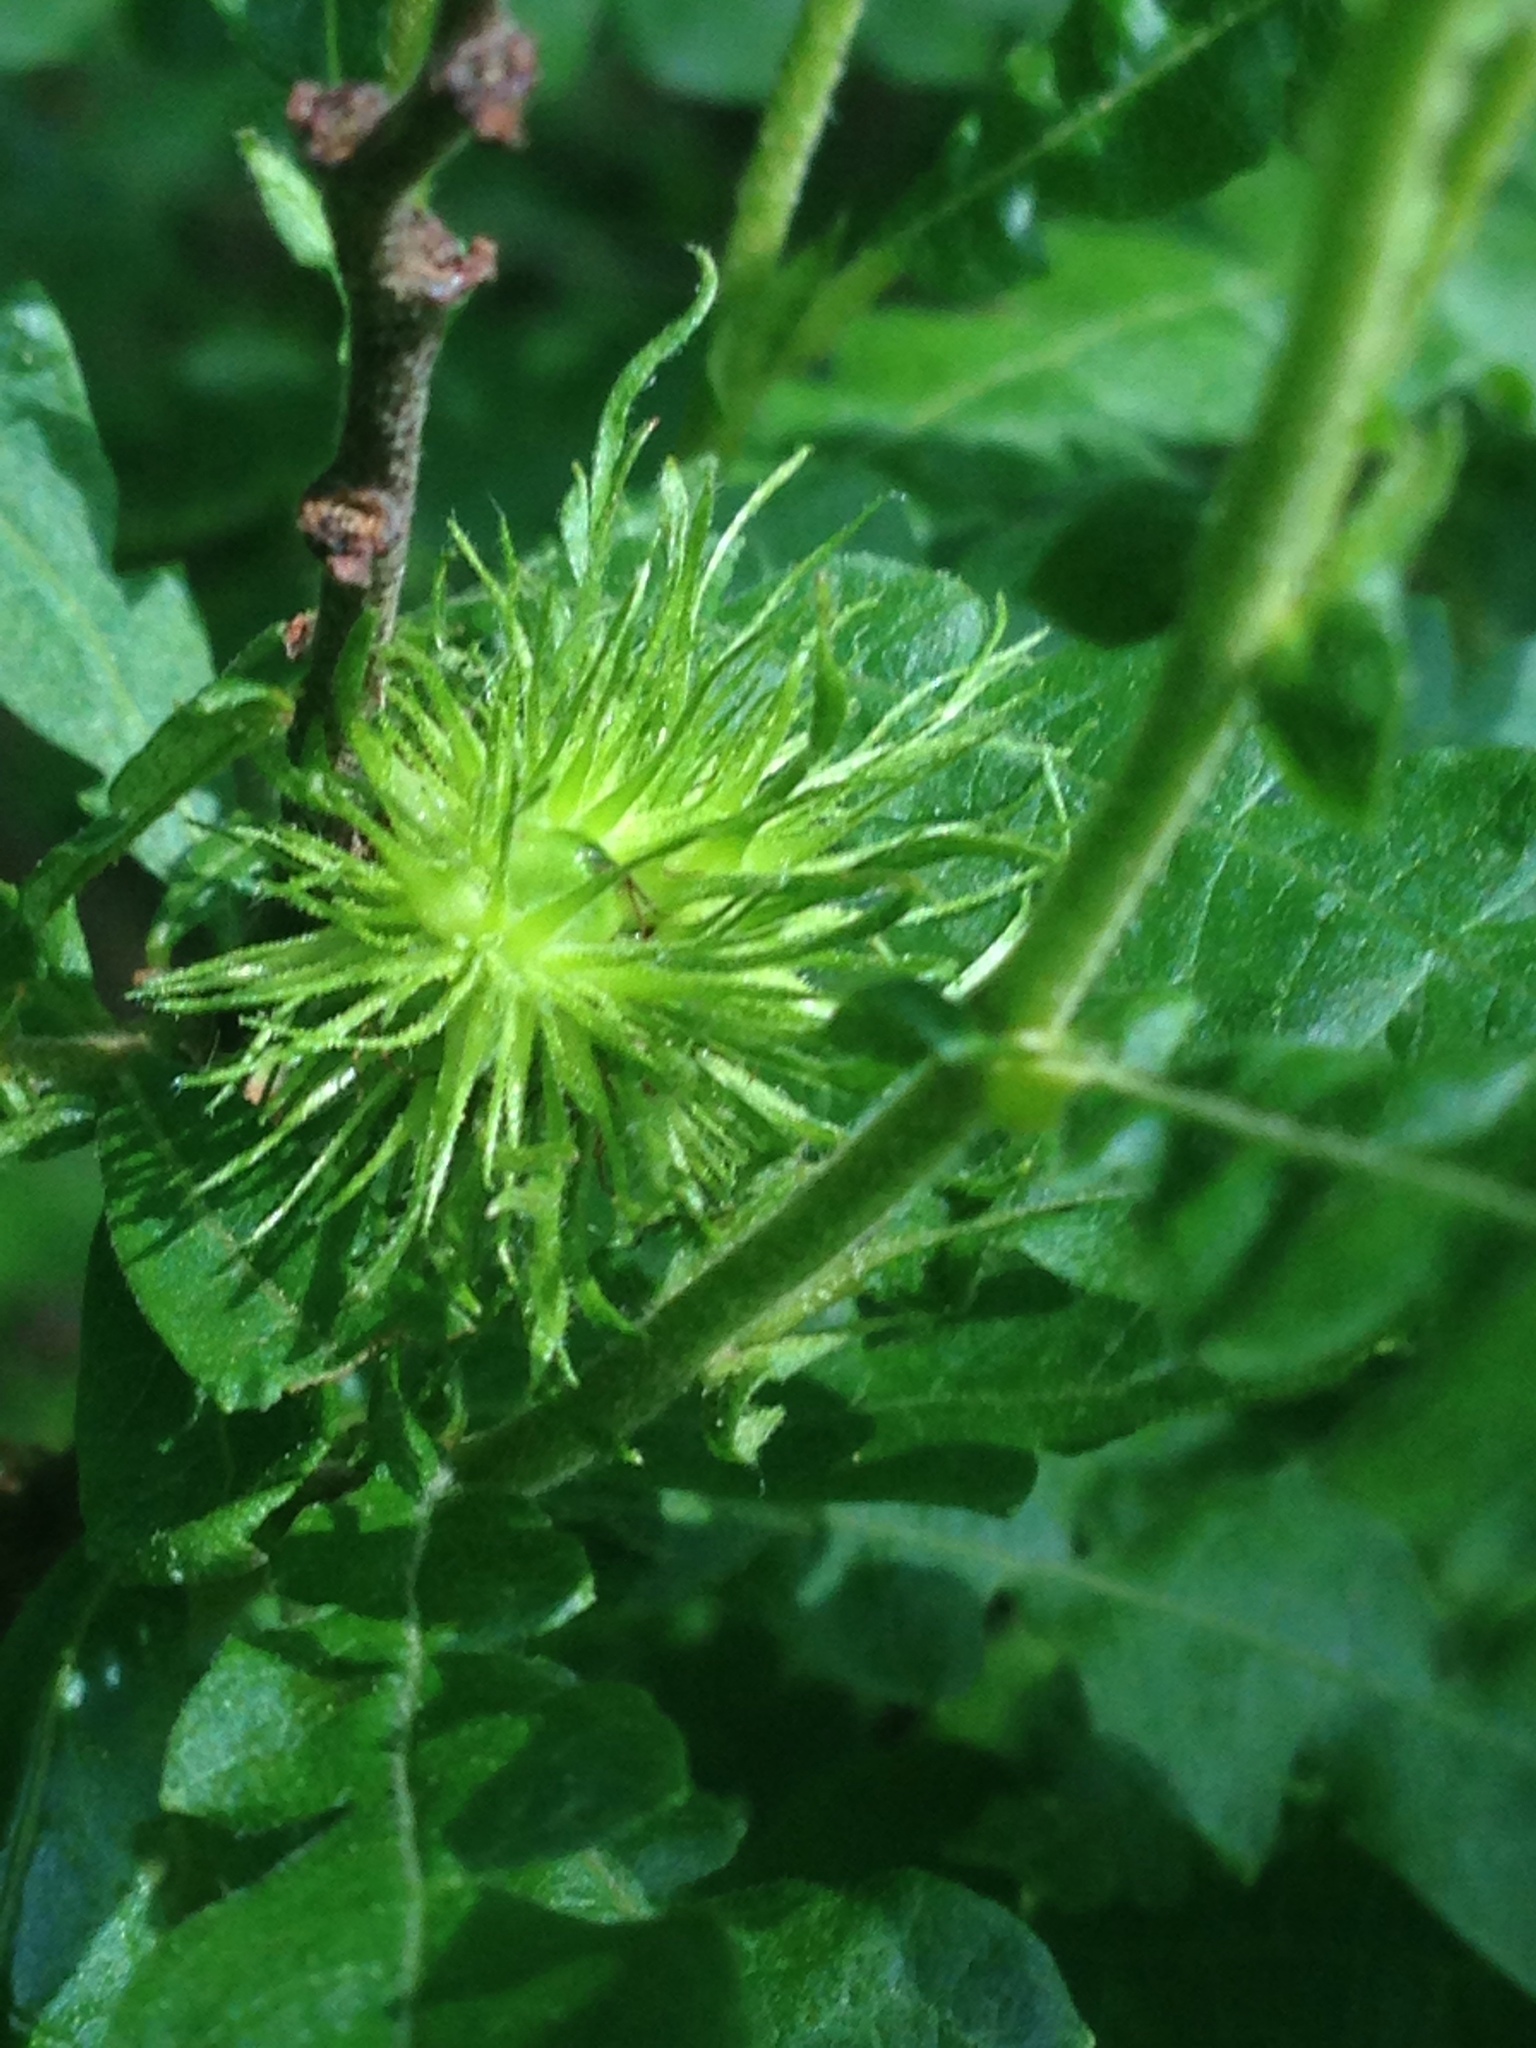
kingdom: Plantae
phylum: Tracheophyta
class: Magnoliopsida
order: Fagales
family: Myricaceae
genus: Comptonia
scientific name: Comptonia peregrina
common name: Sweet-fern
